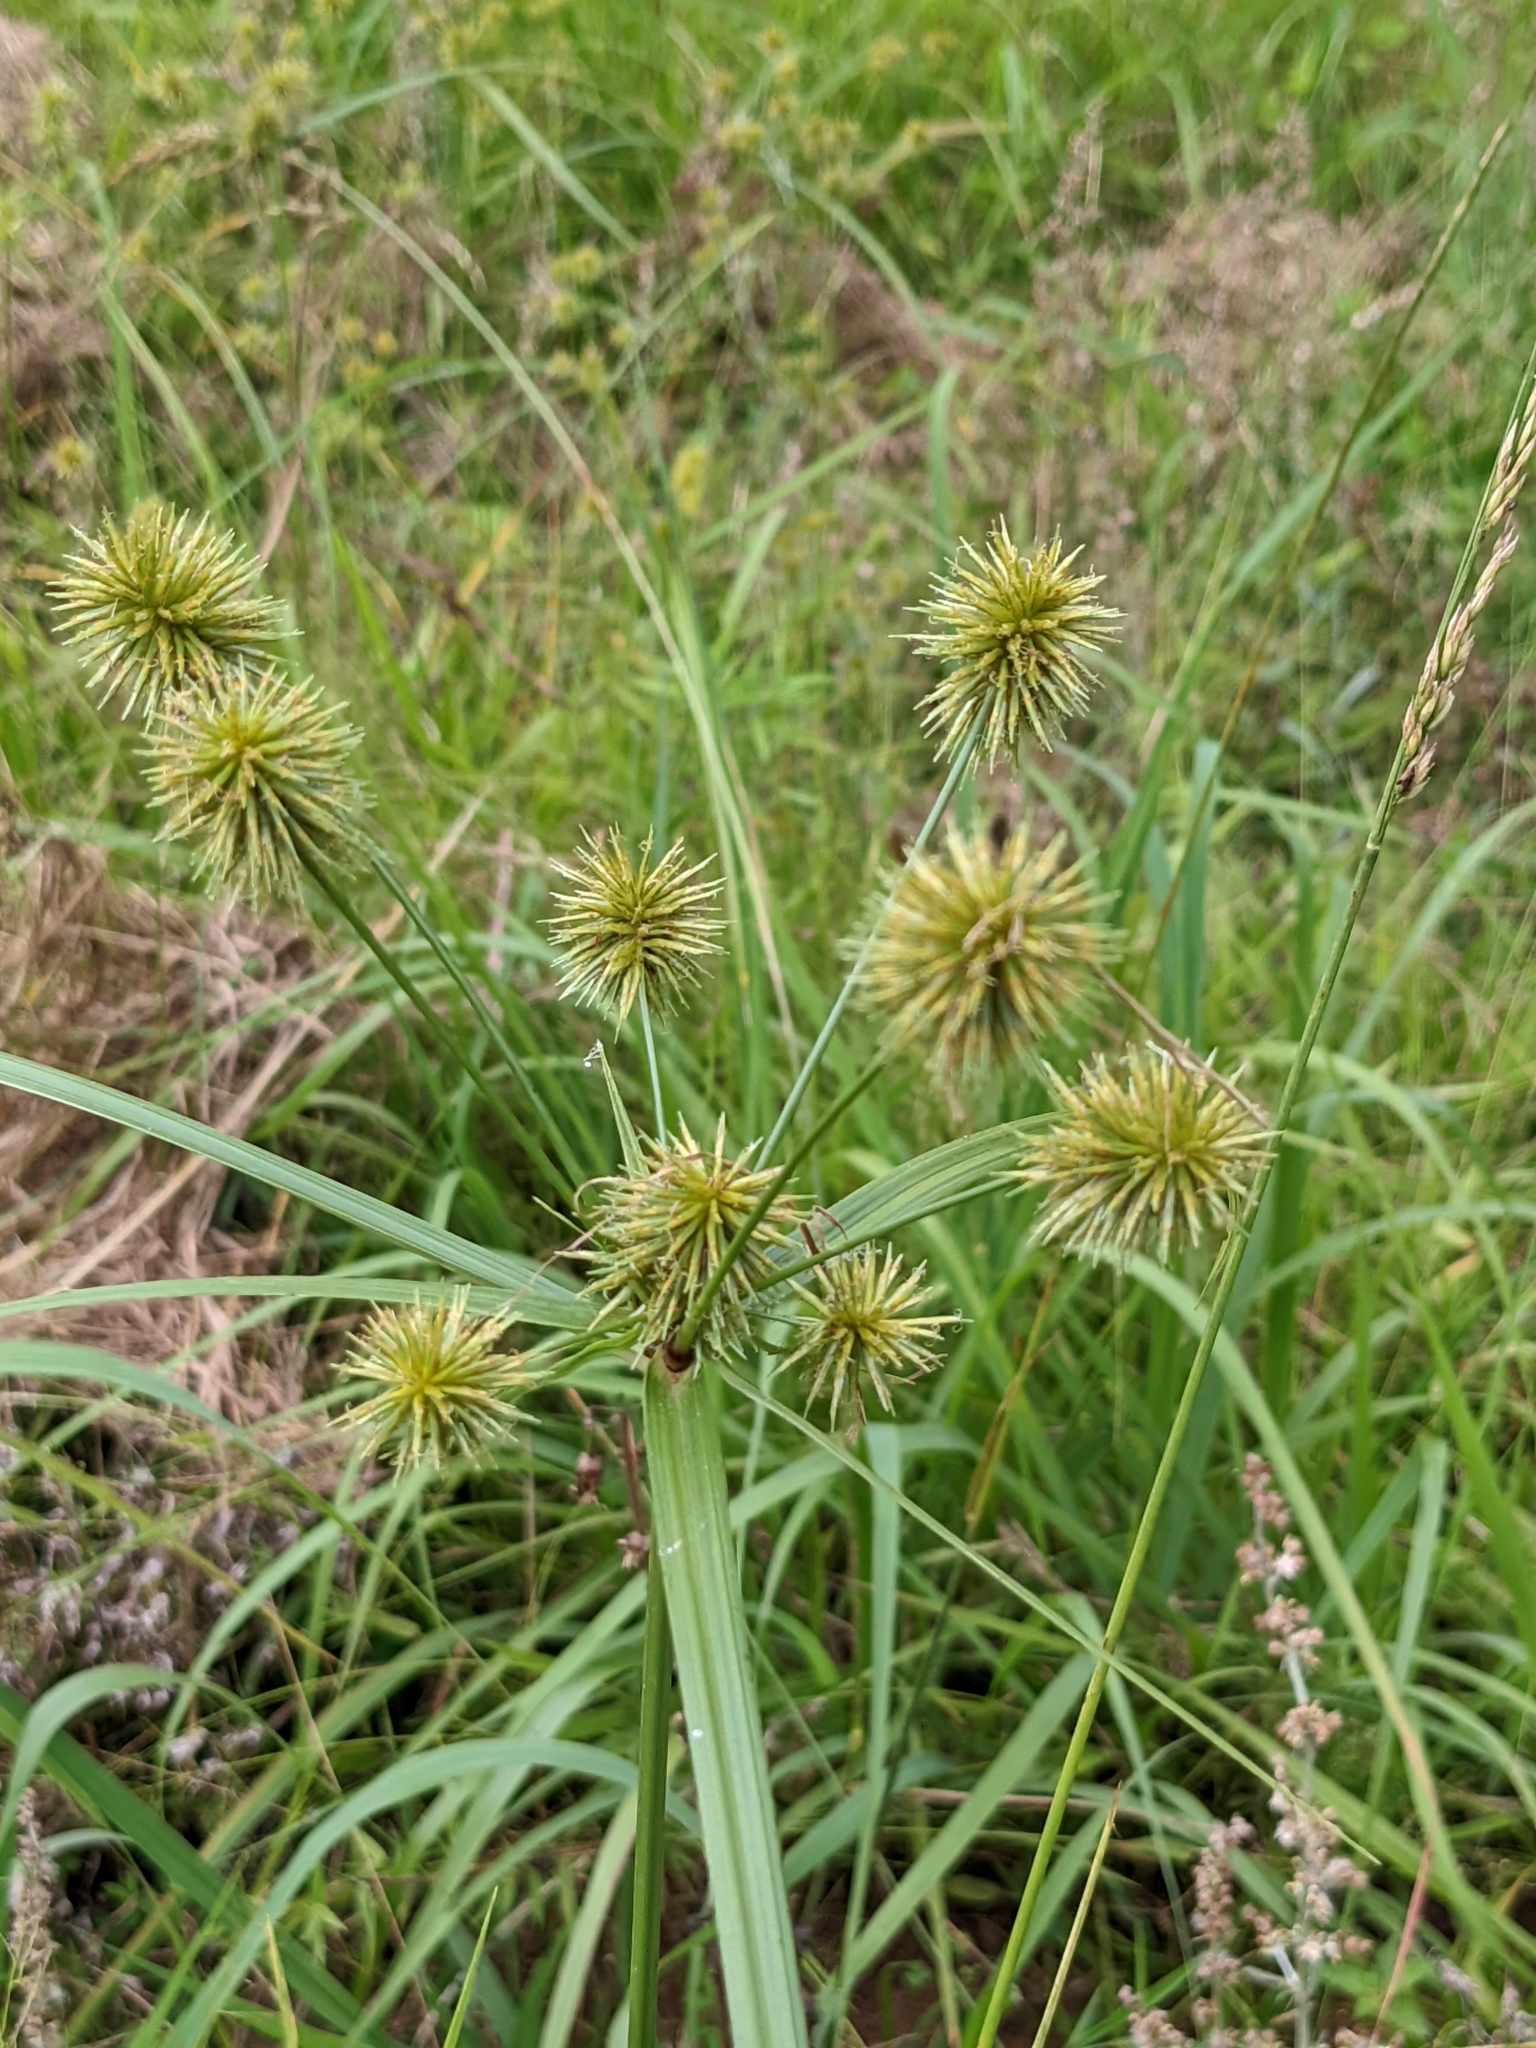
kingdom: Plantae
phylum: Tracheophyta
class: Liliopsida
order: Poales
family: Cyperaceae
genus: Cyperus
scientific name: Cyperus echinatus
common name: Teasel sedge
